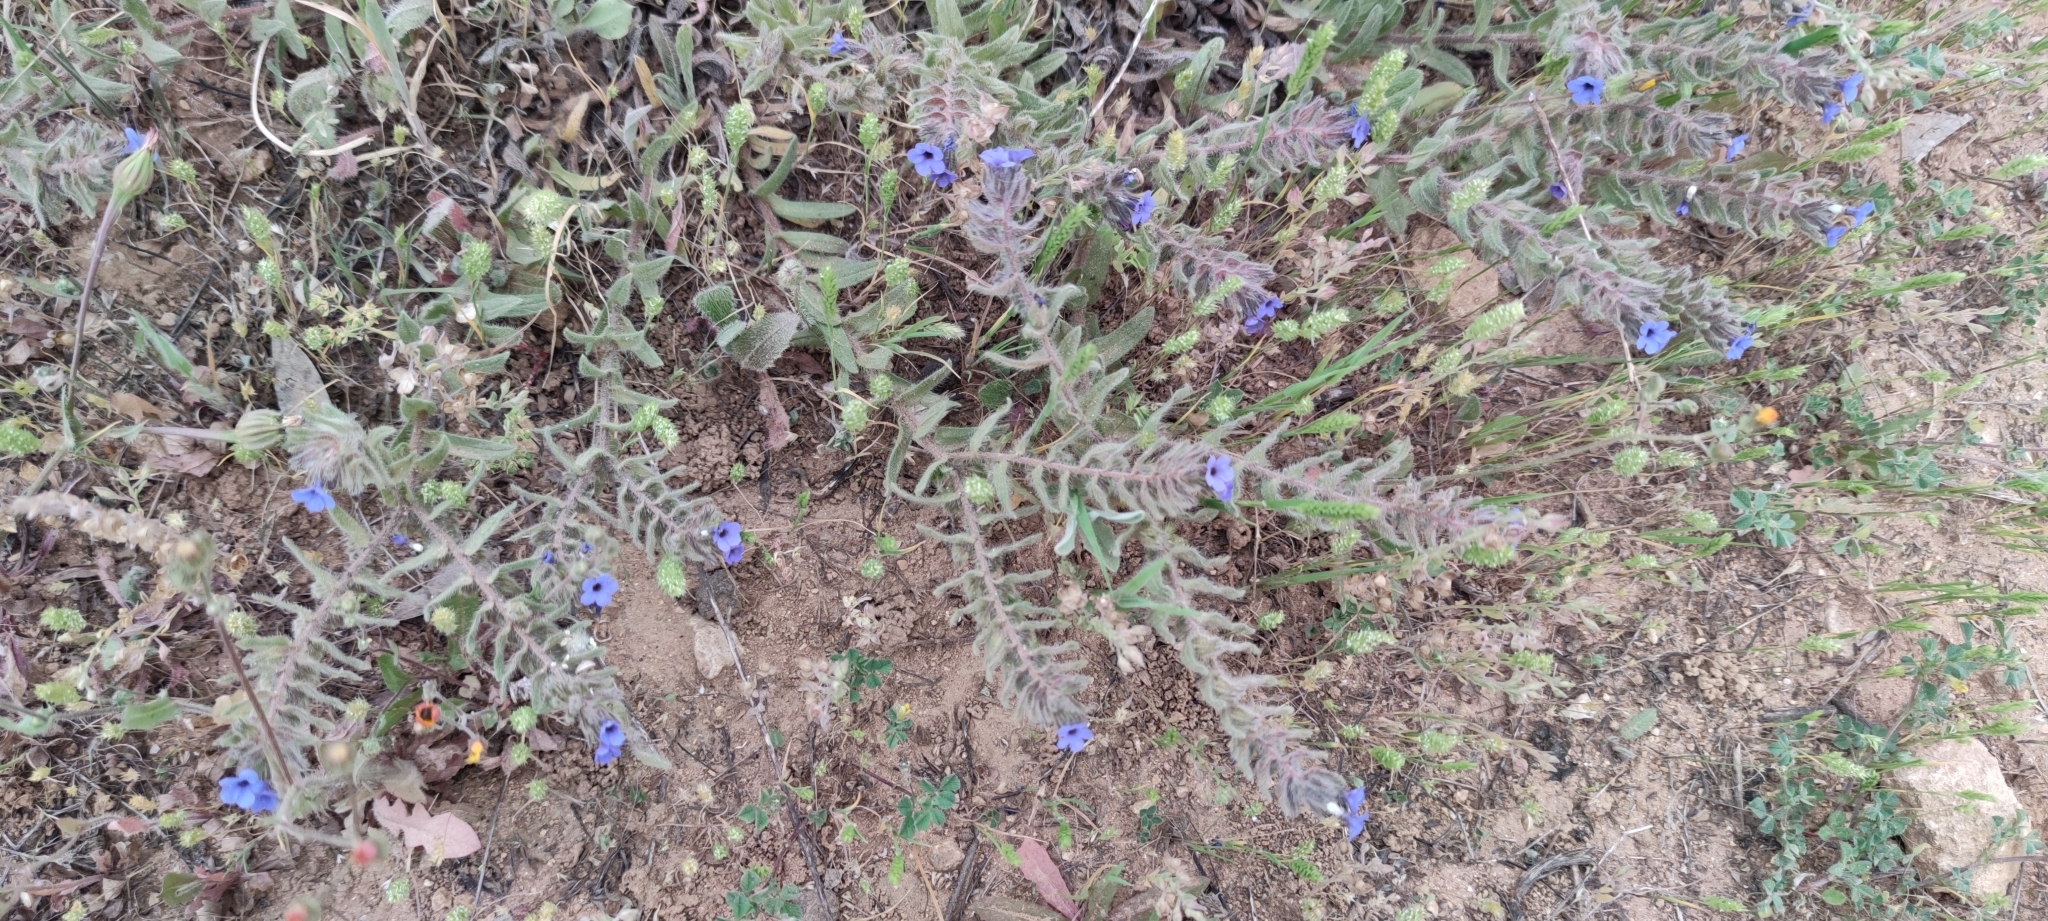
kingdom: Plantae
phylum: Tracheophyta
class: Magnoliopsida
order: Boraginales
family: Boraginaceae
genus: Alkanna
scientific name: Alkanna tinctoria
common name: Dyer's-alkanet
